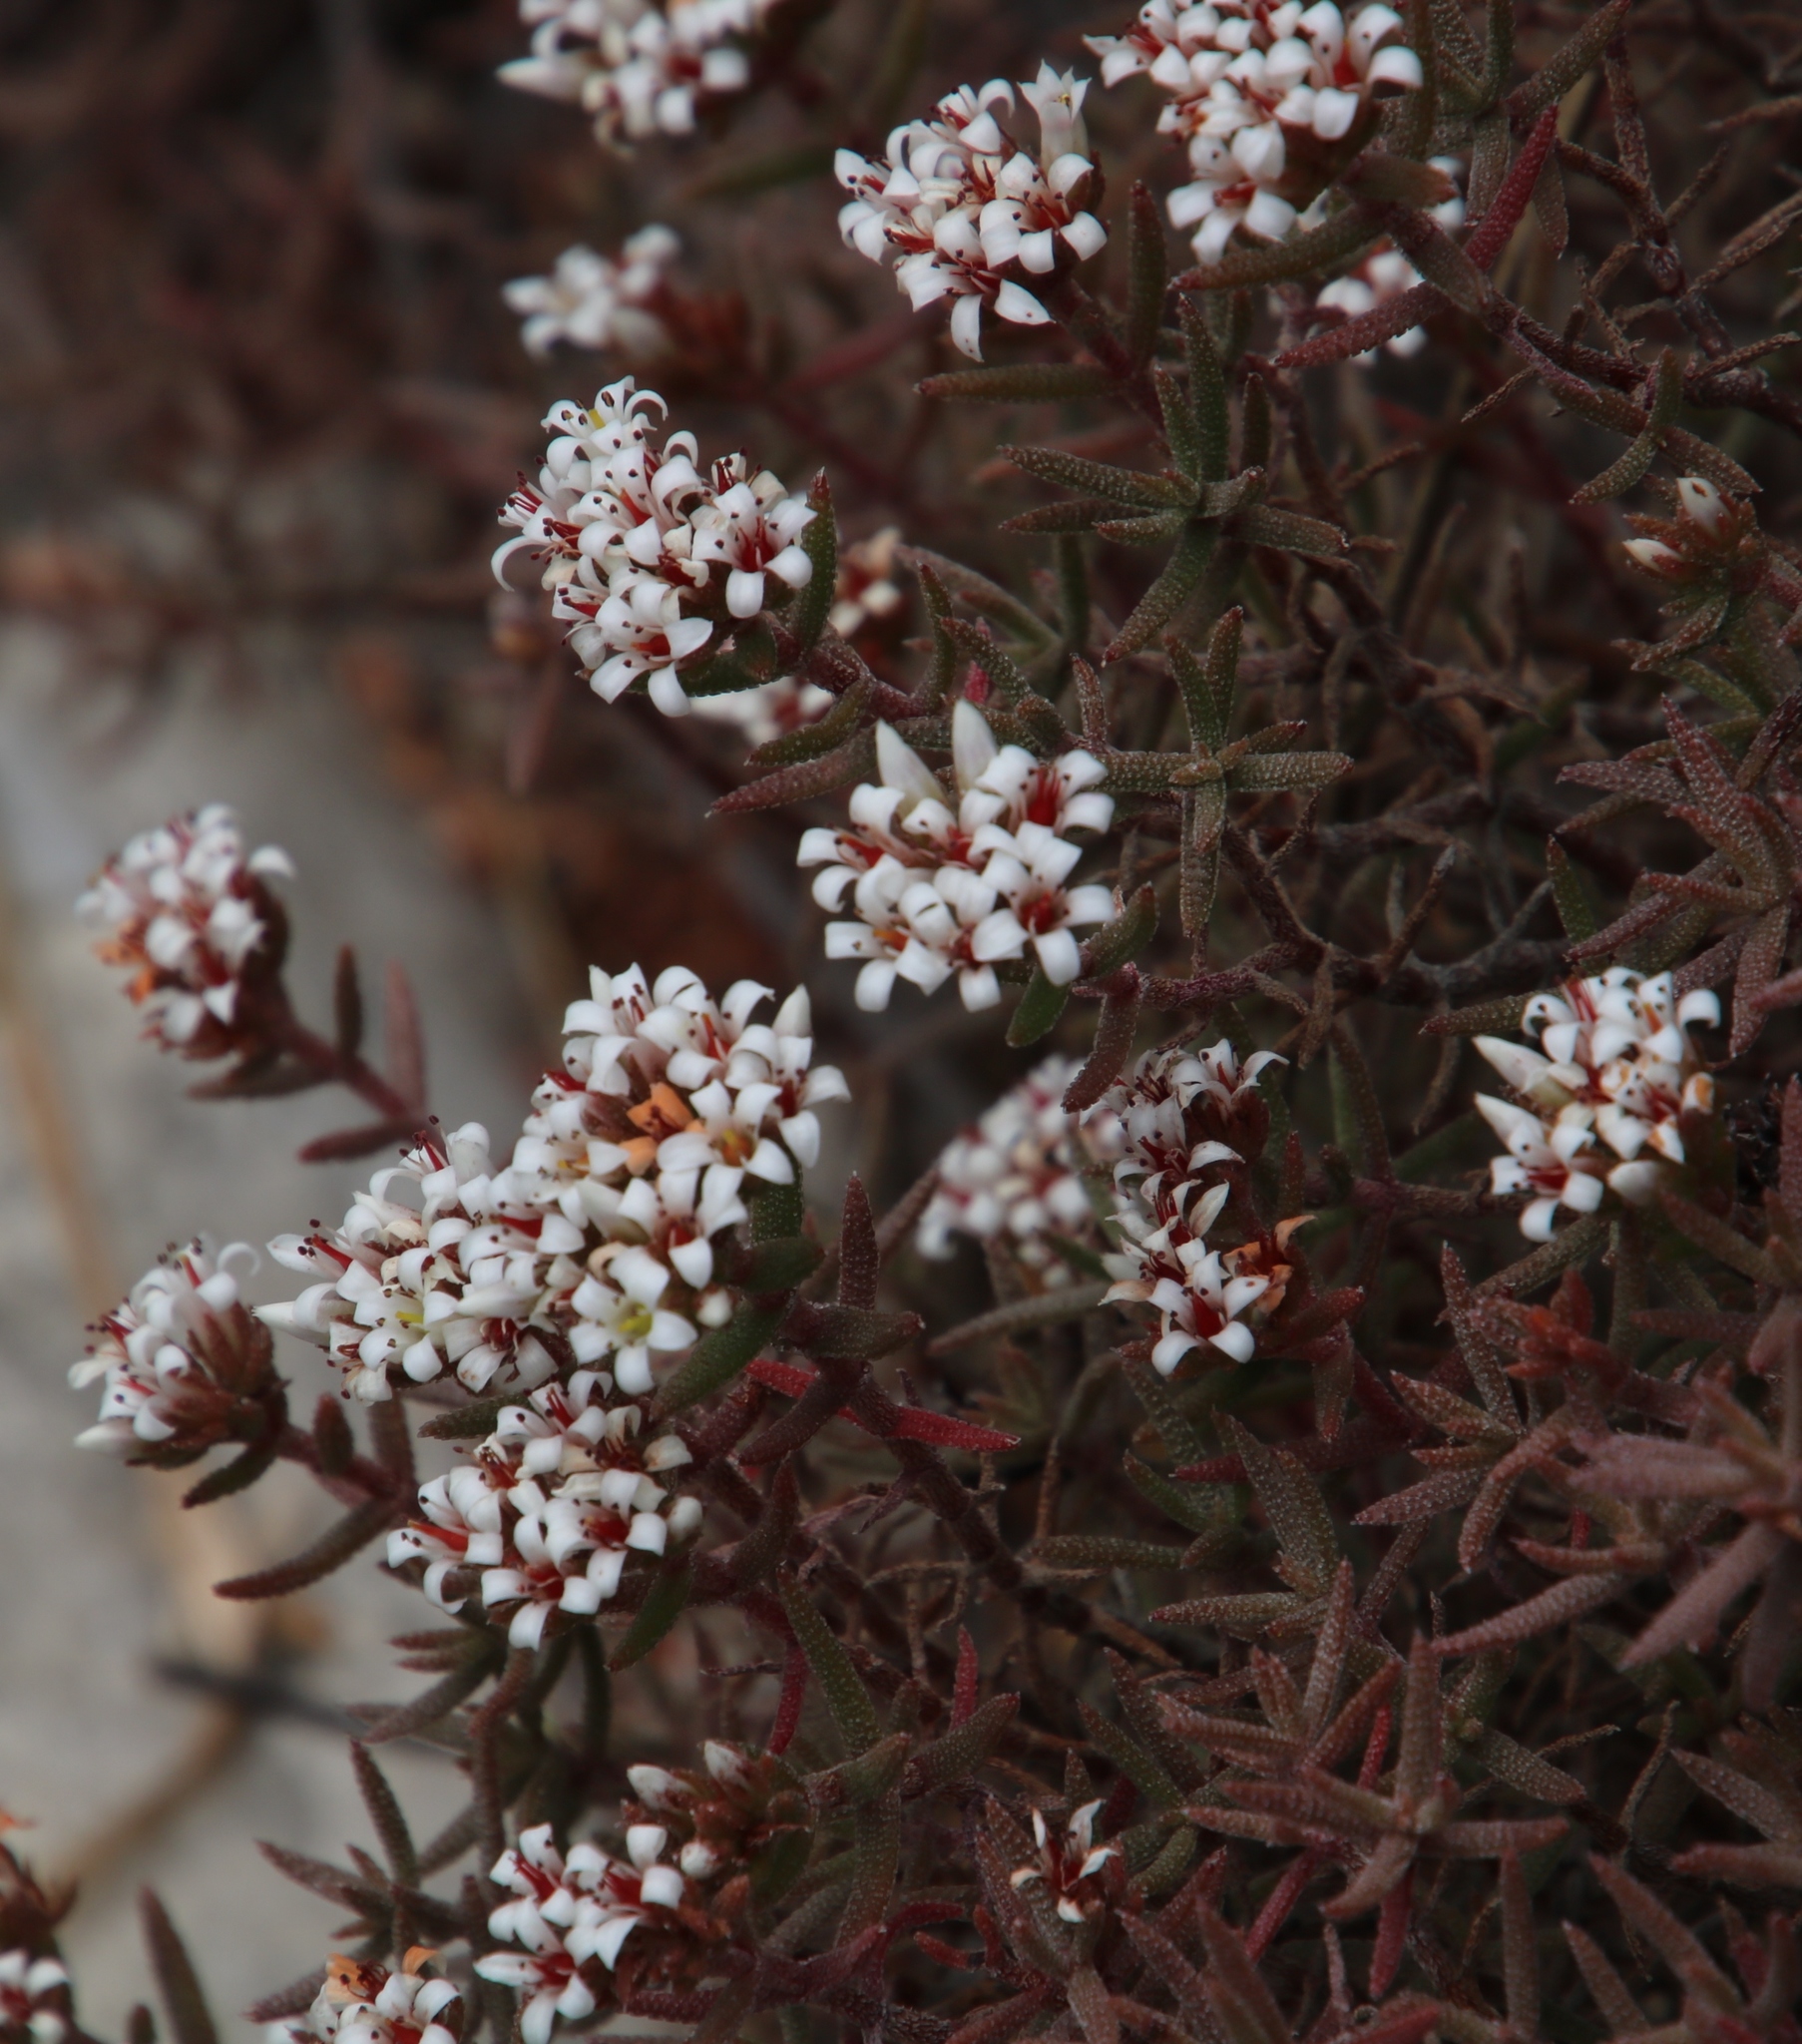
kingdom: Plantae
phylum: Tracheophyta
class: Magnoliopsida
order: Saxifragales
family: Crassulaceae
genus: Crassula
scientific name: Crassula pruinosa
